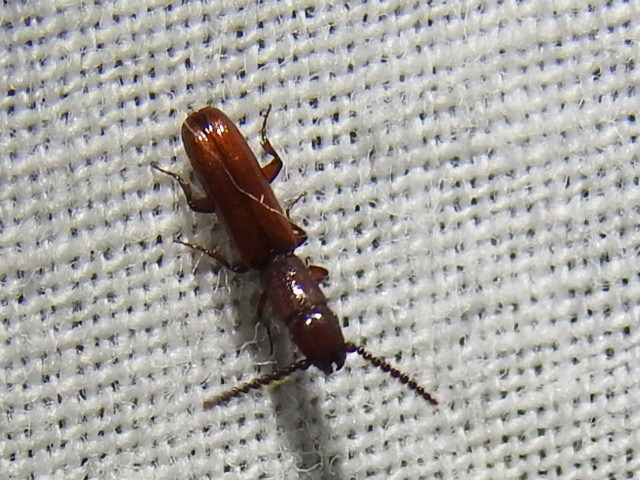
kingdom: Animalia
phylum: Arthropoda
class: Insecta
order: Coleoptera
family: Passandridae
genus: Taphroscelidia
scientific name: Taphroscelidia linearis
